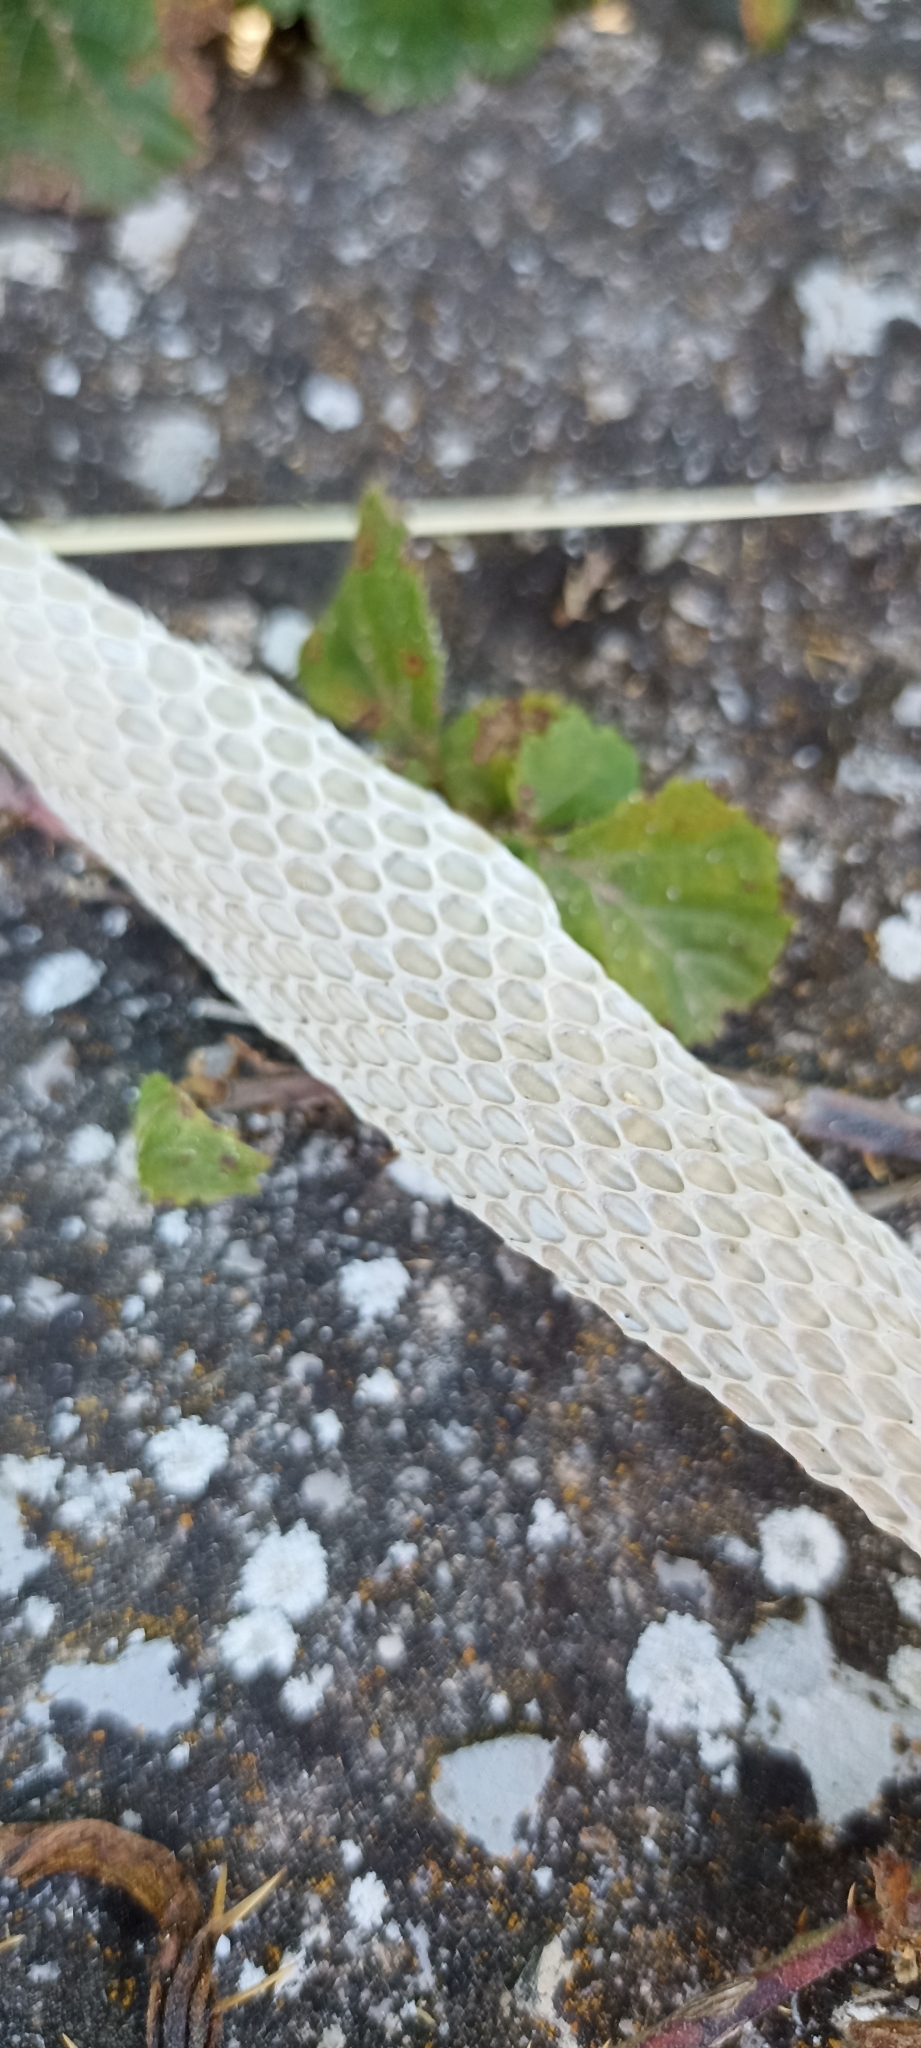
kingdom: Animalia
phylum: Chordata
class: Squamata
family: Psammophiidae
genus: Malpolon
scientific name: Malpolon monspessulanus
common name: Montpellier snake
